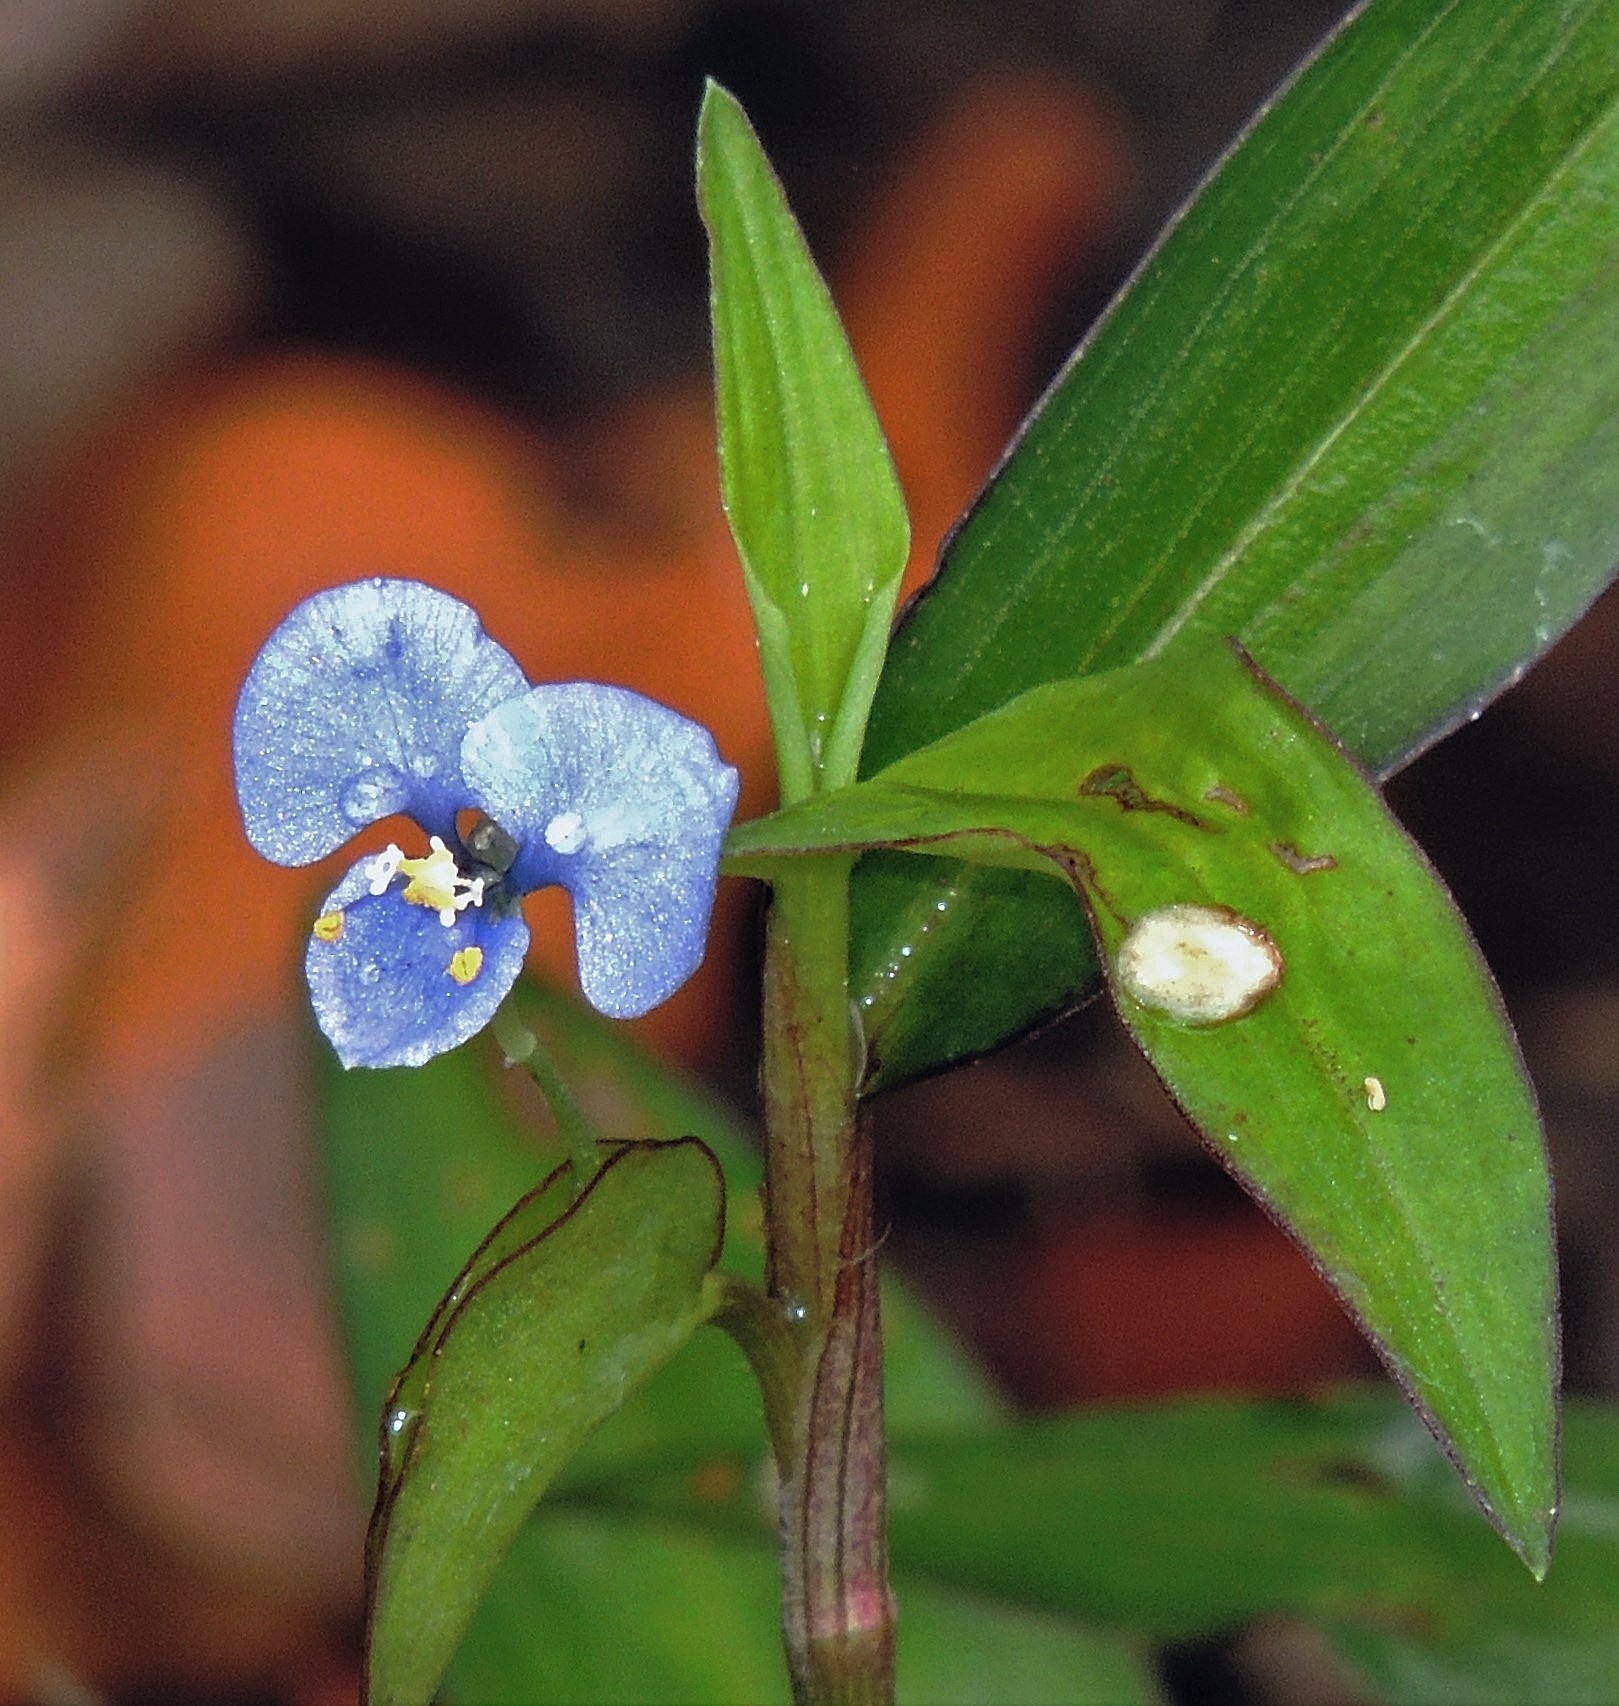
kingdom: Plantae
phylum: Tracheophyta
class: Liliopsida
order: Commelinales
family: Commelinaceae
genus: Commelina
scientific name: Commelina diffusa
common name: Climbing dayflower
